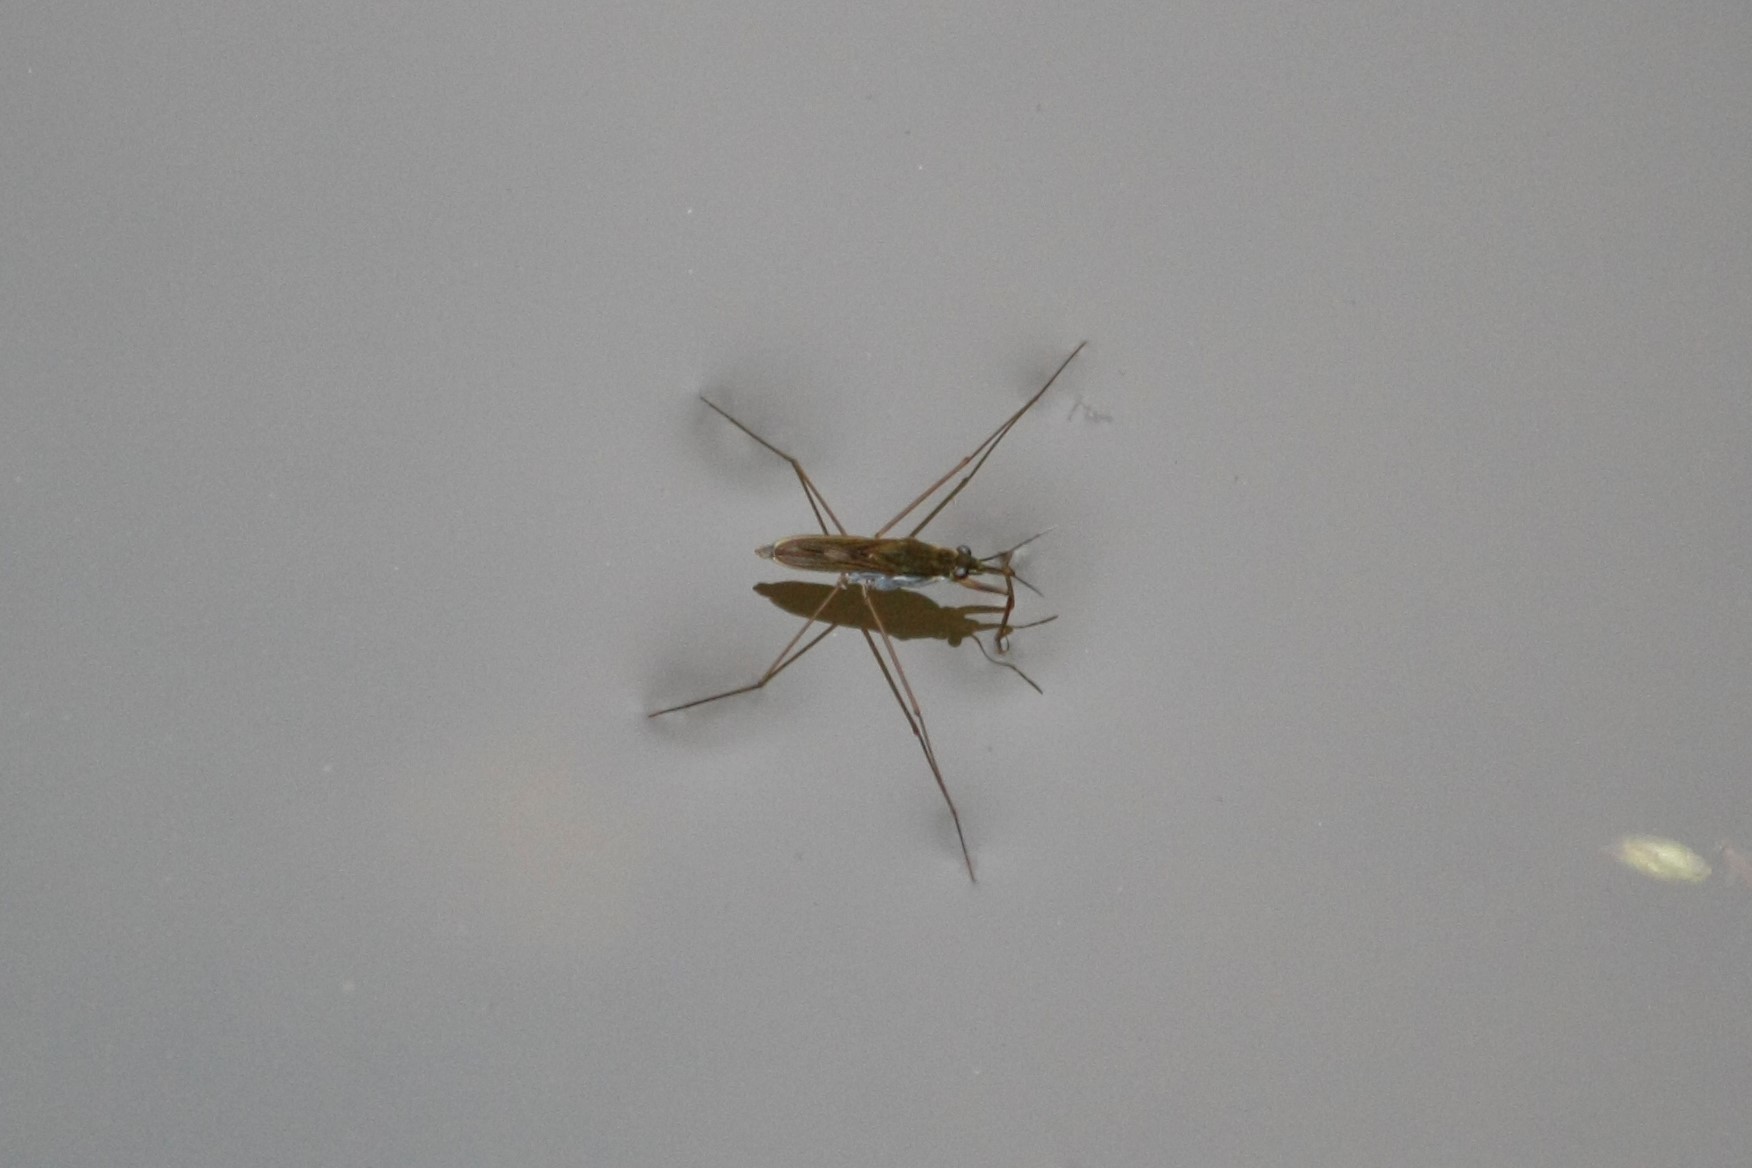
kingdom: Animalia
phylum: Arthropoda
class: Insecta
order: Hemiptera
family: Gerridae
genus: Gerris
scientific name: Gerris
